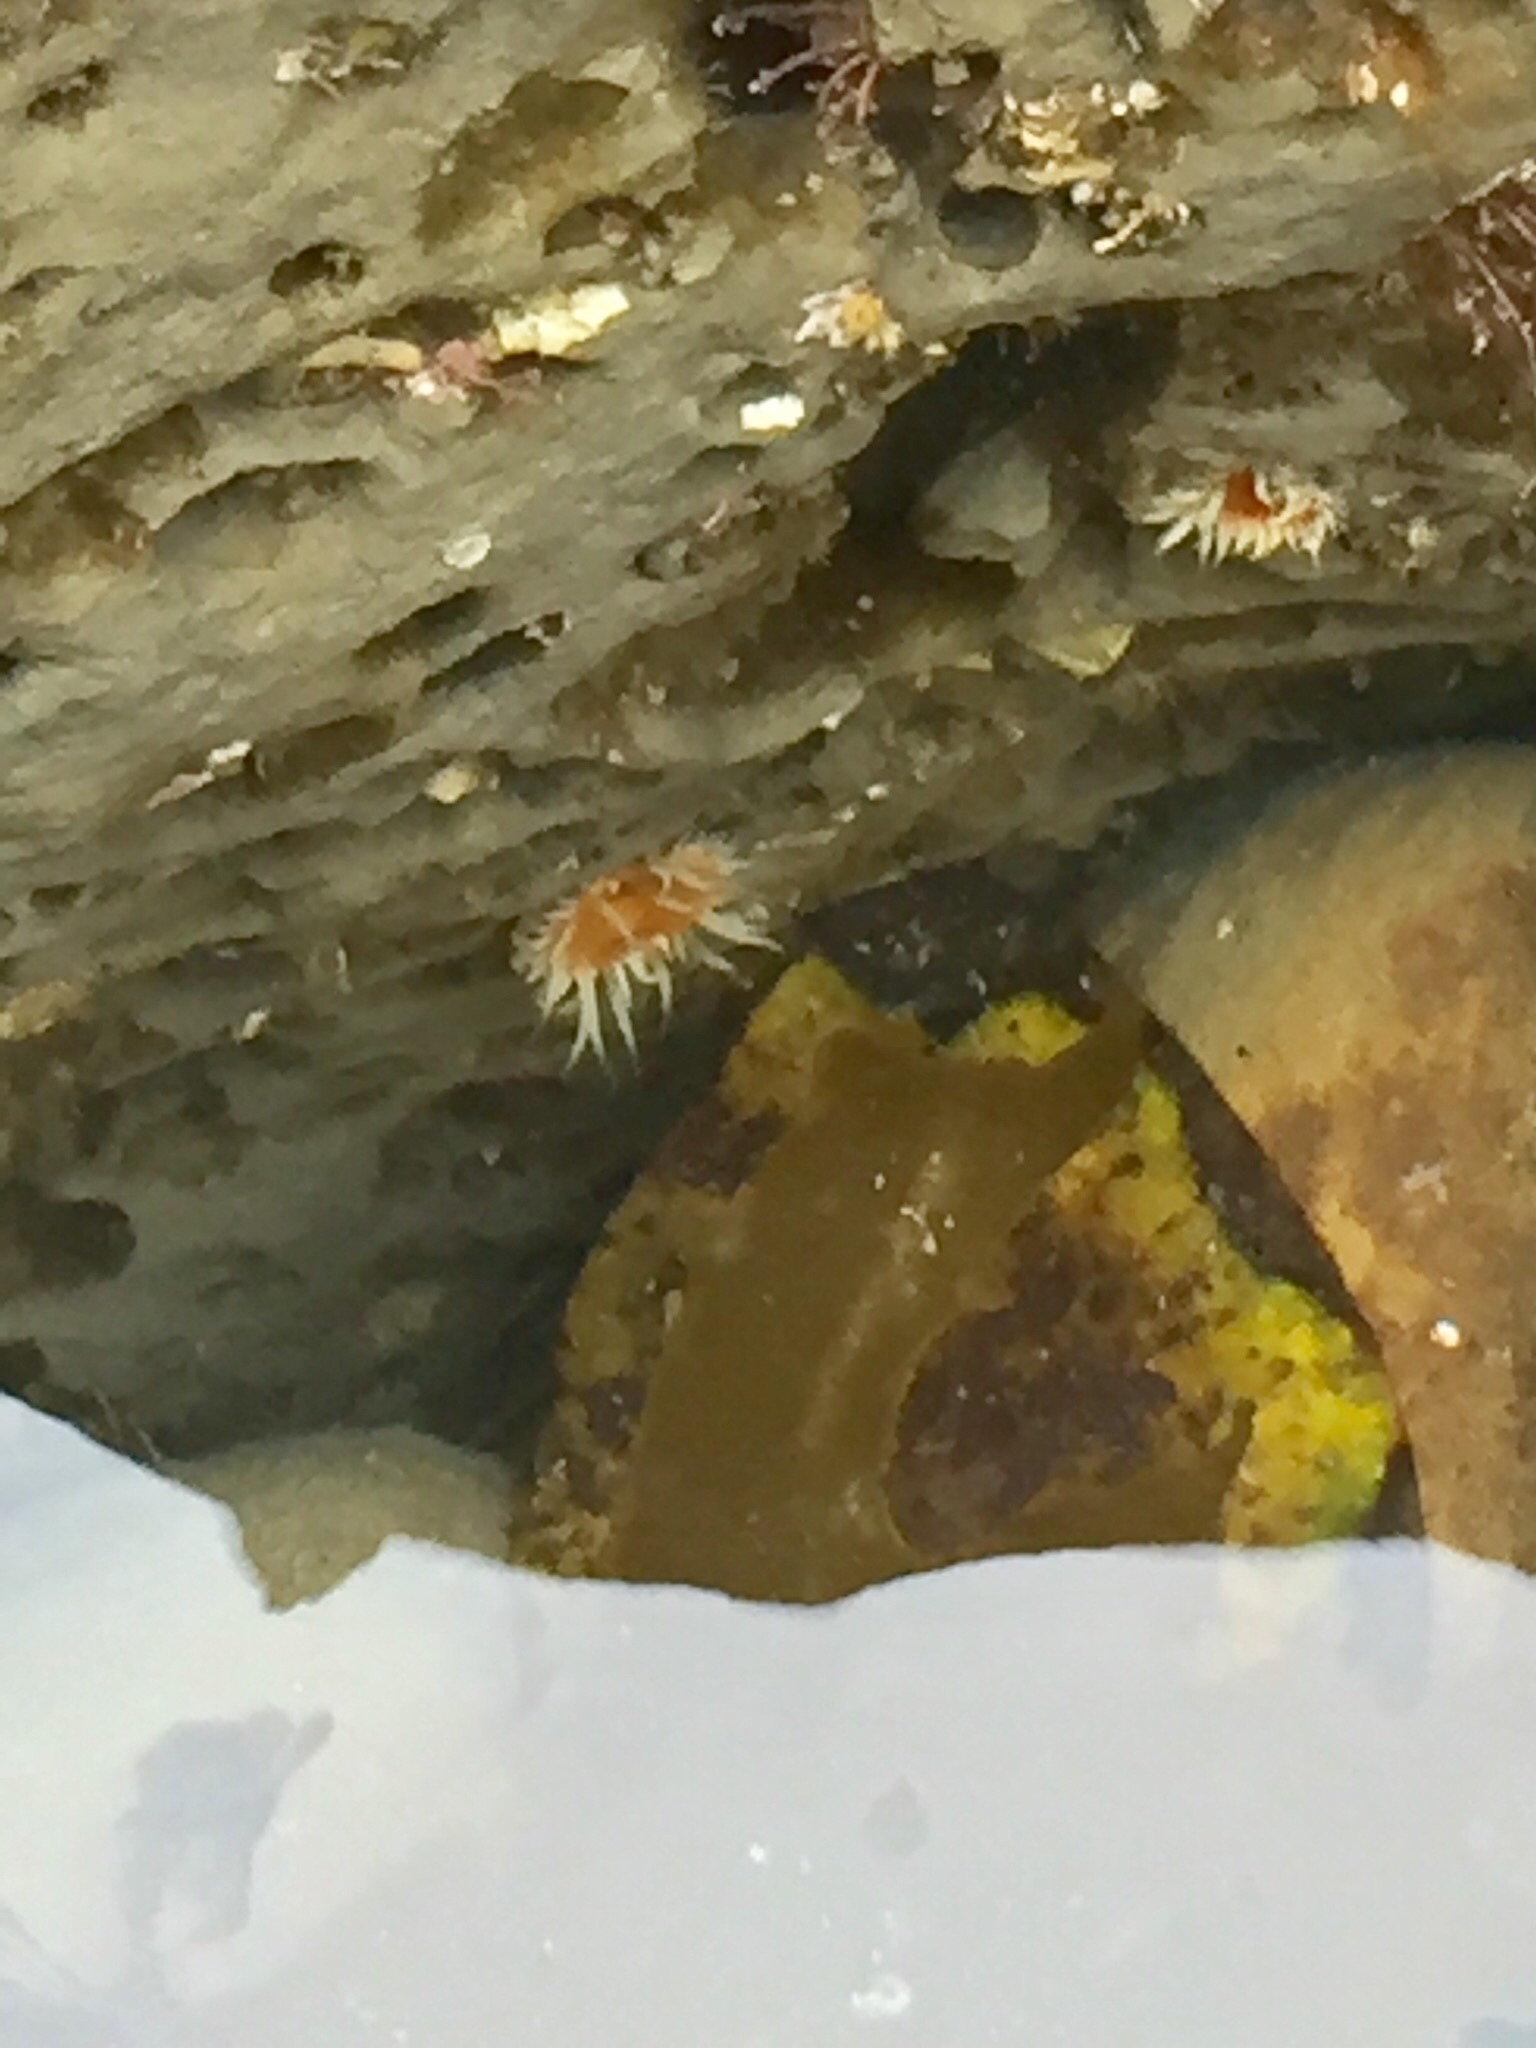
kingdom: Animalia
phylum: Cnidaria
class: Anthozoa
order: Actiniaria
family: Sagartiidae
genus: Anthothoe
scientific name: Anthothoe albocincta
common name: Orange striped anemone
